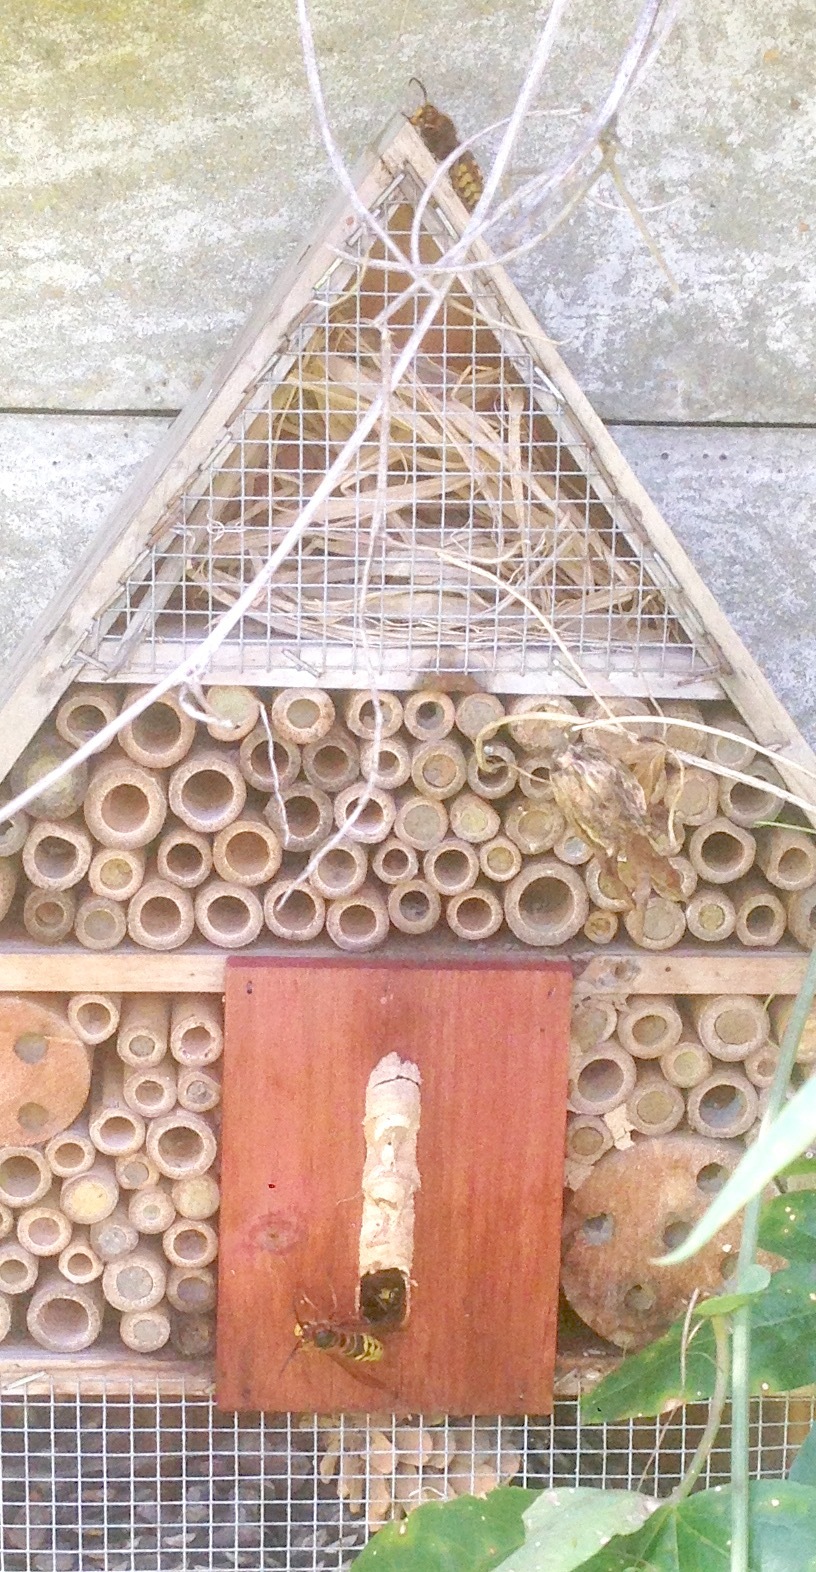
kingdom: Animalia
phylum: Arthropoda
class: Insecta
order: Hymenoptera
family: Vespidae
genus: Vespa
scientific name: Vespa crabro
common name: Hornet
